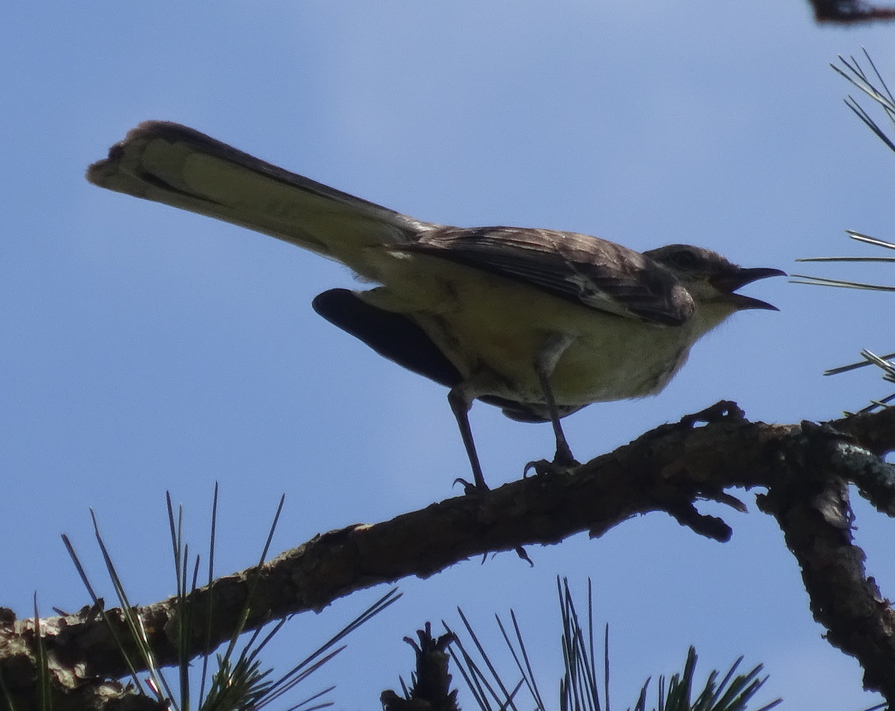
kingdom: Animalia
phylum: Chordata
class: Aves
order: Passeriformes
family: Mimidae
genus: Mimus
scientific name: Mimus polyglottos
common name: Northern mockingbird
